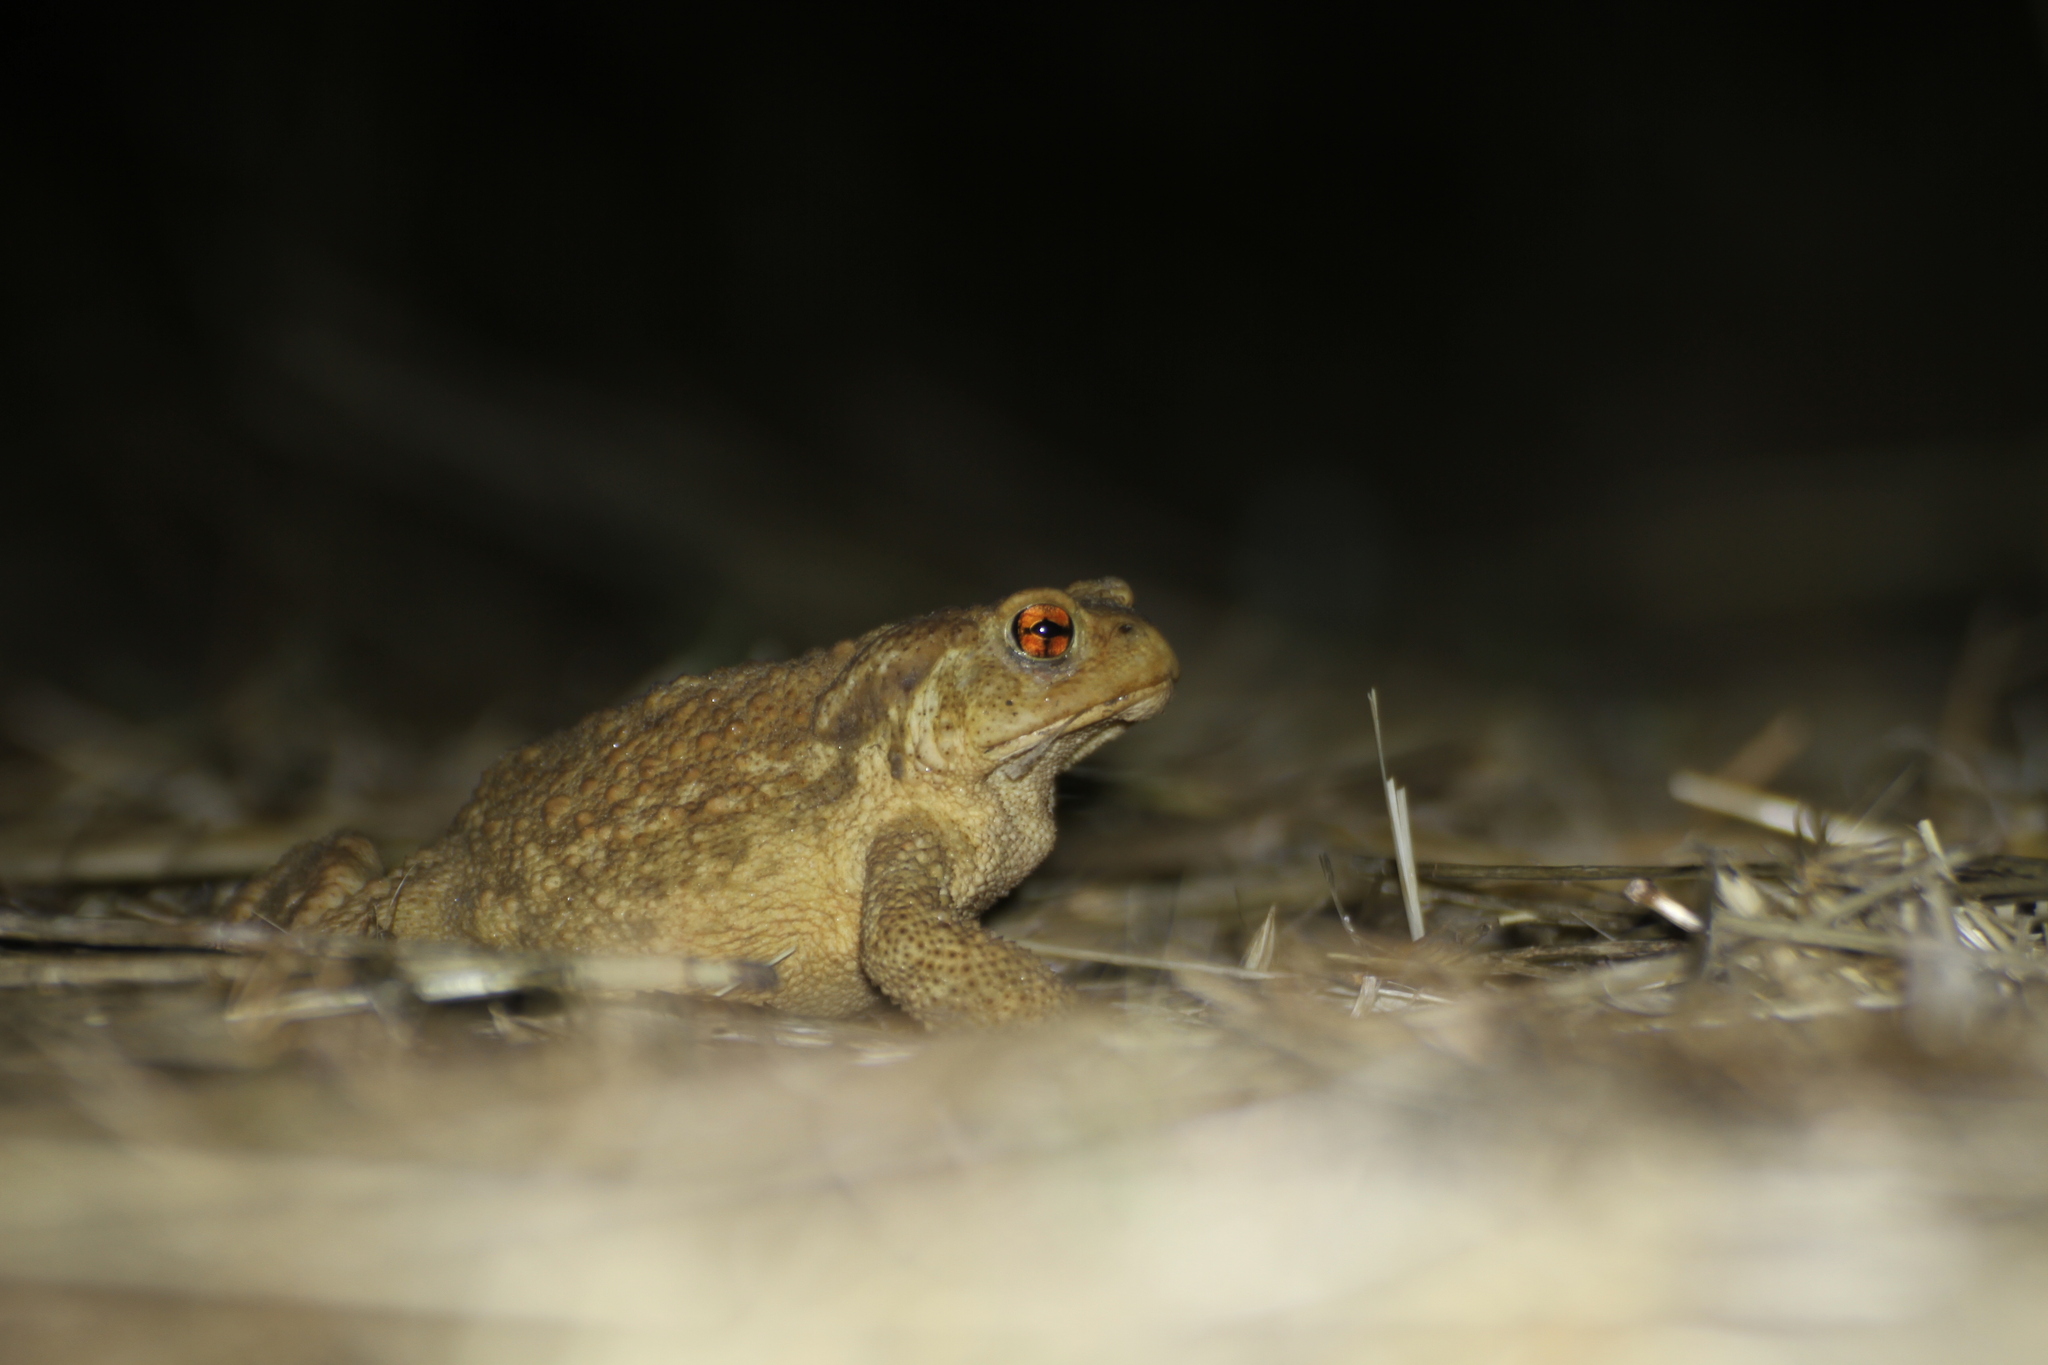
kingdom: Animalia
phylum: Chordata
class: Amphibia
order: Anura
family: Bufonidae
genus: Bufo
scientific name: Bufo spinosus
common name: Western common toad
